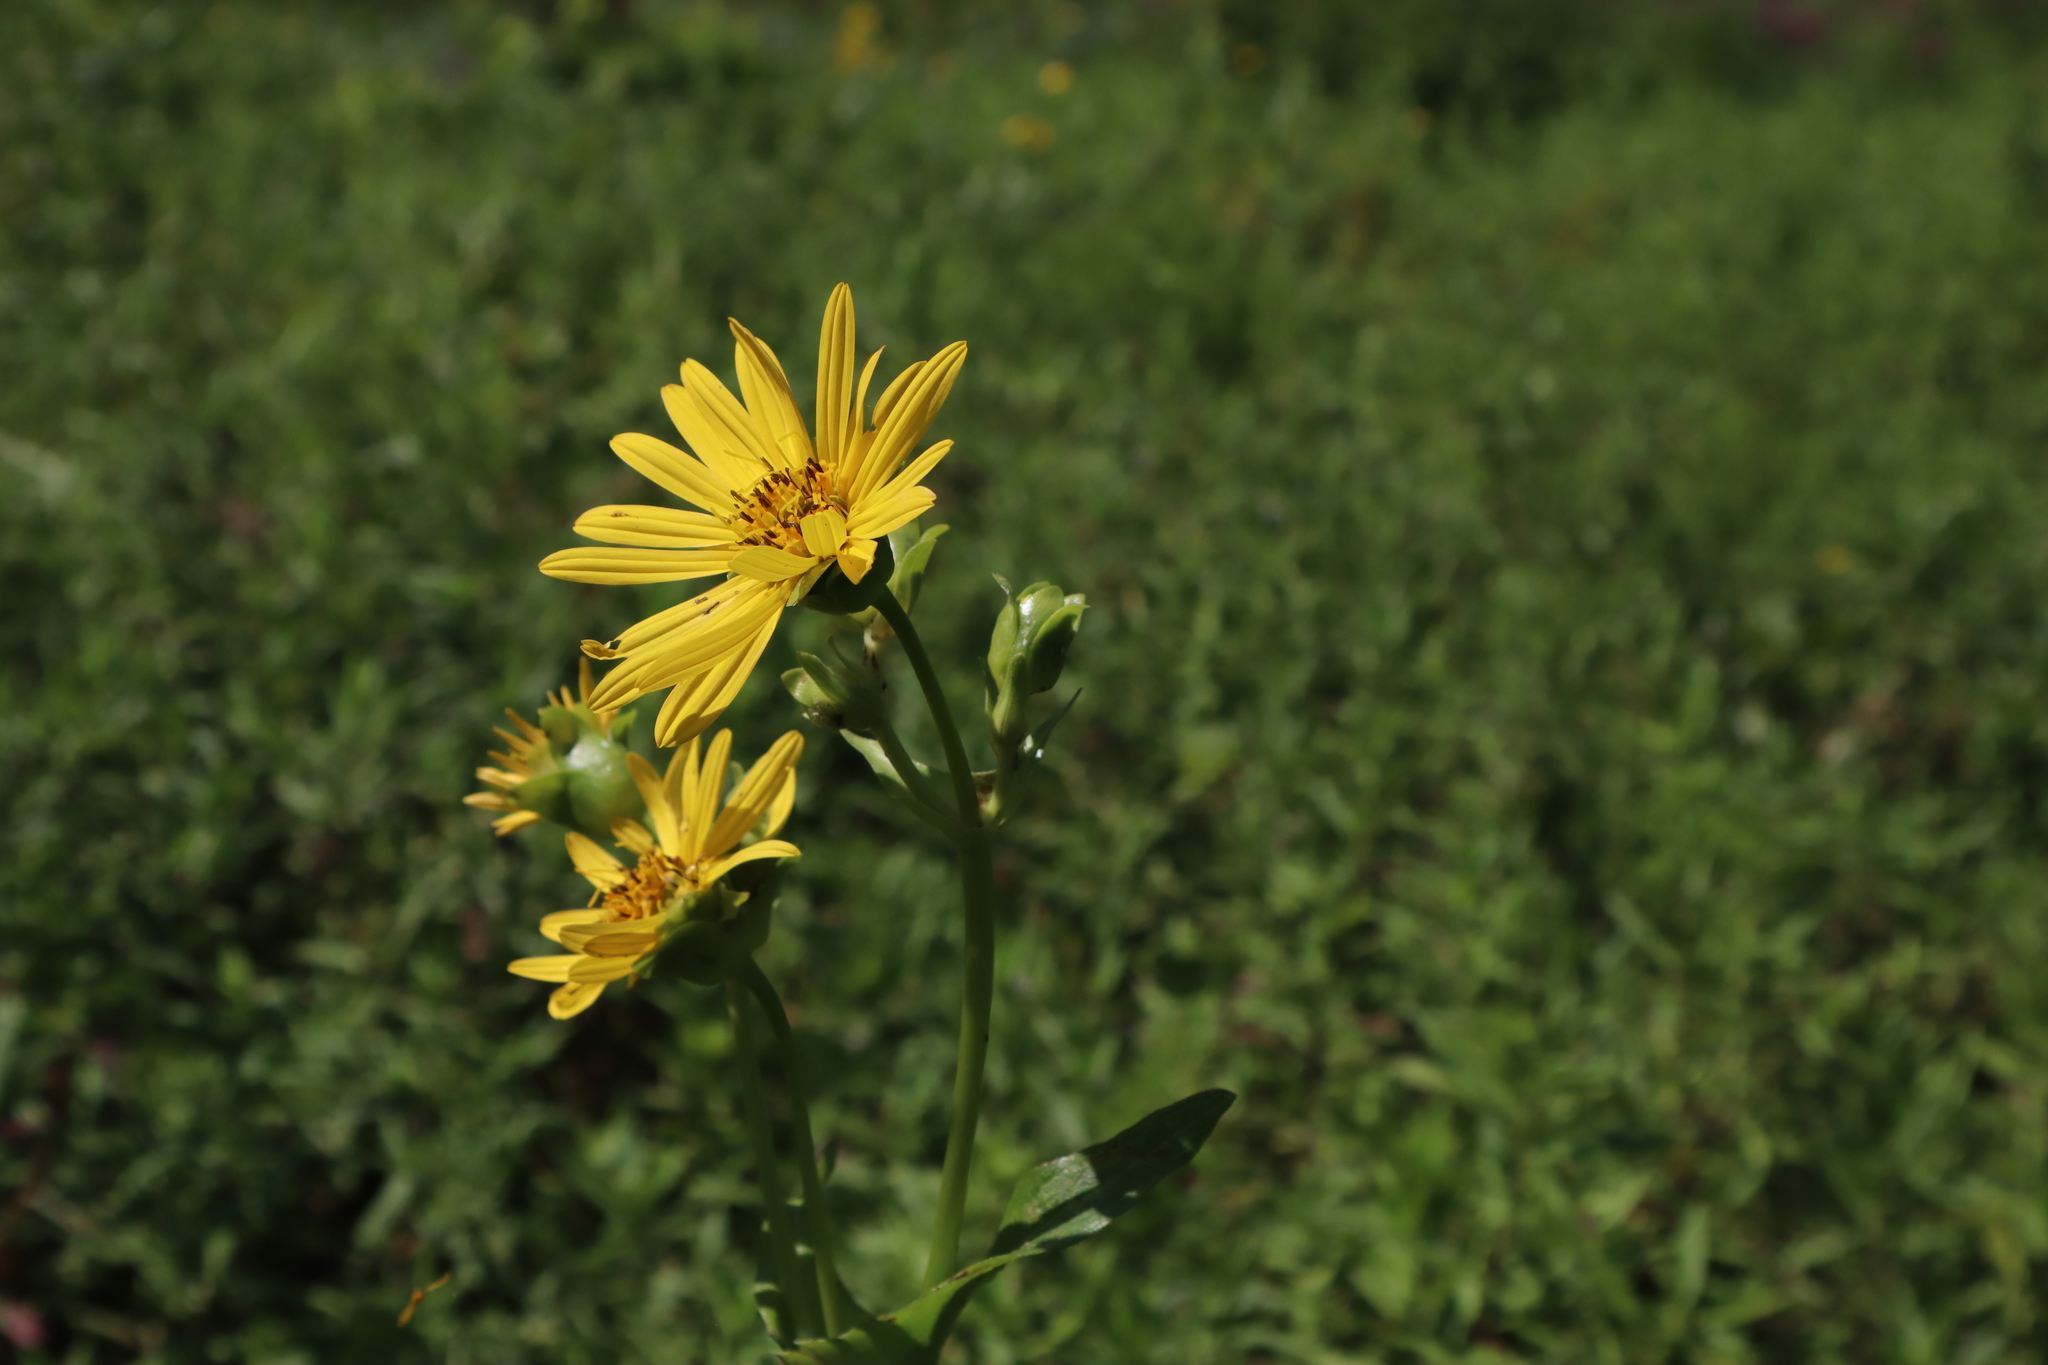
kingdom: Plantae
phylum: Tracheophyta
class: Magnoliopsida
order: Asterales
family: Asteraceae
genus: Silphium
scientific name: Silphium perfoliatum
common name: Cup-plant
